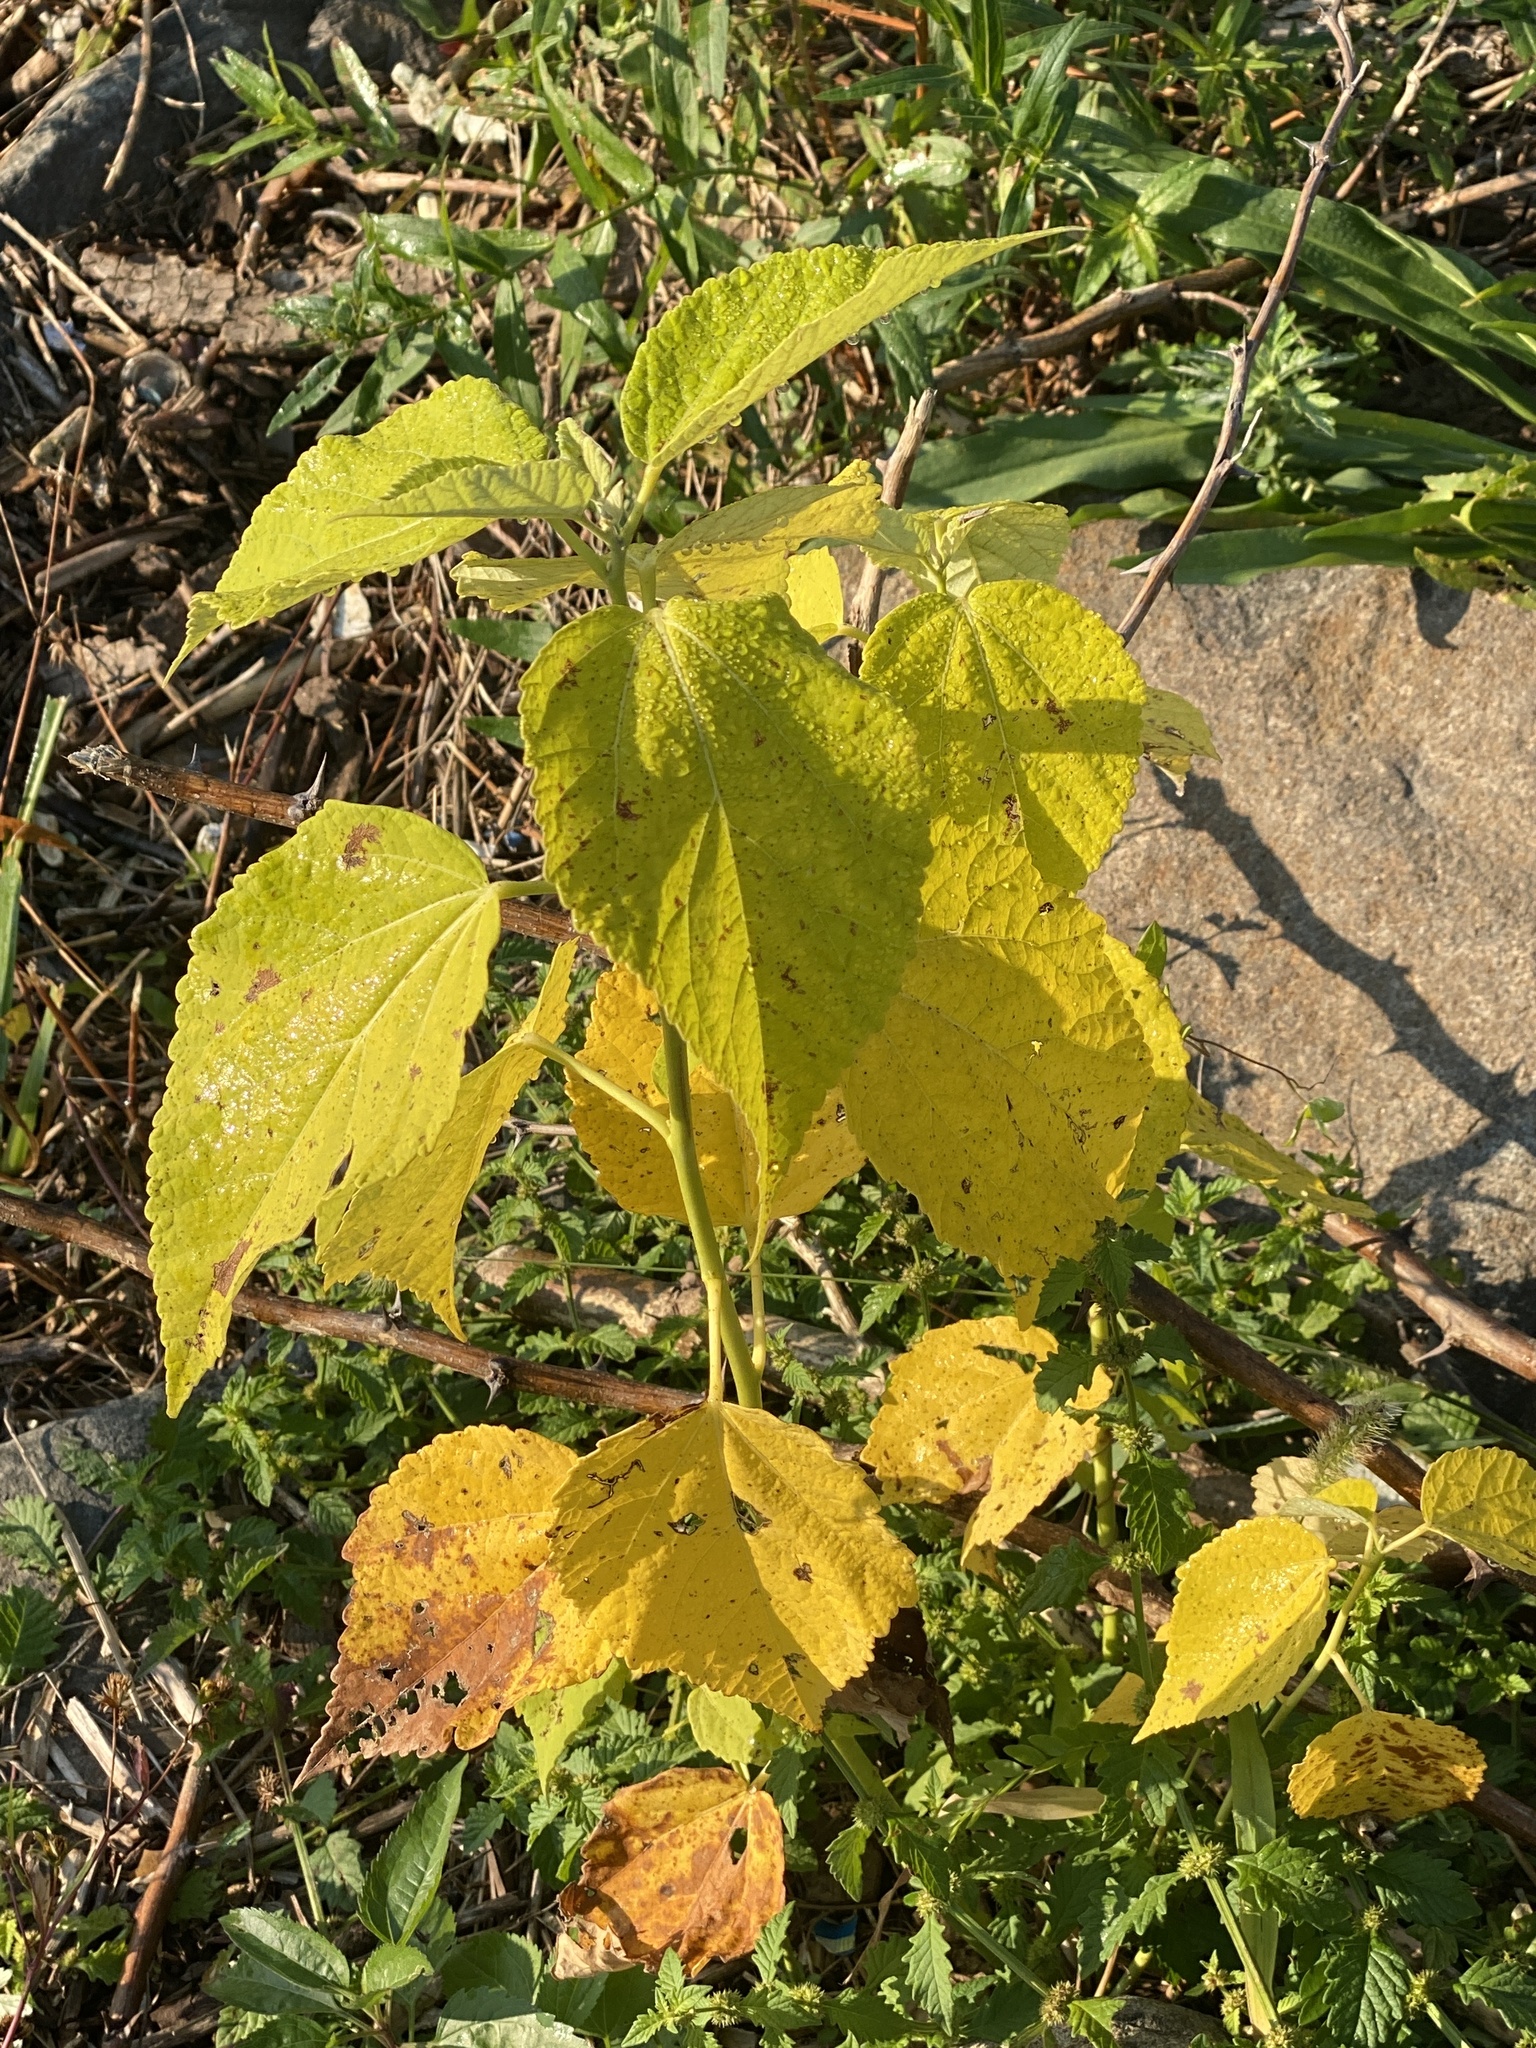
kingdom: Plantae
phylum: Tracheophyta
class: Magnoliopsida
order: Malvales
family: Malvaceae
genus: Hibiscus
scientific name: Hibiscus moscheutos
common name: Common rose-mallow
